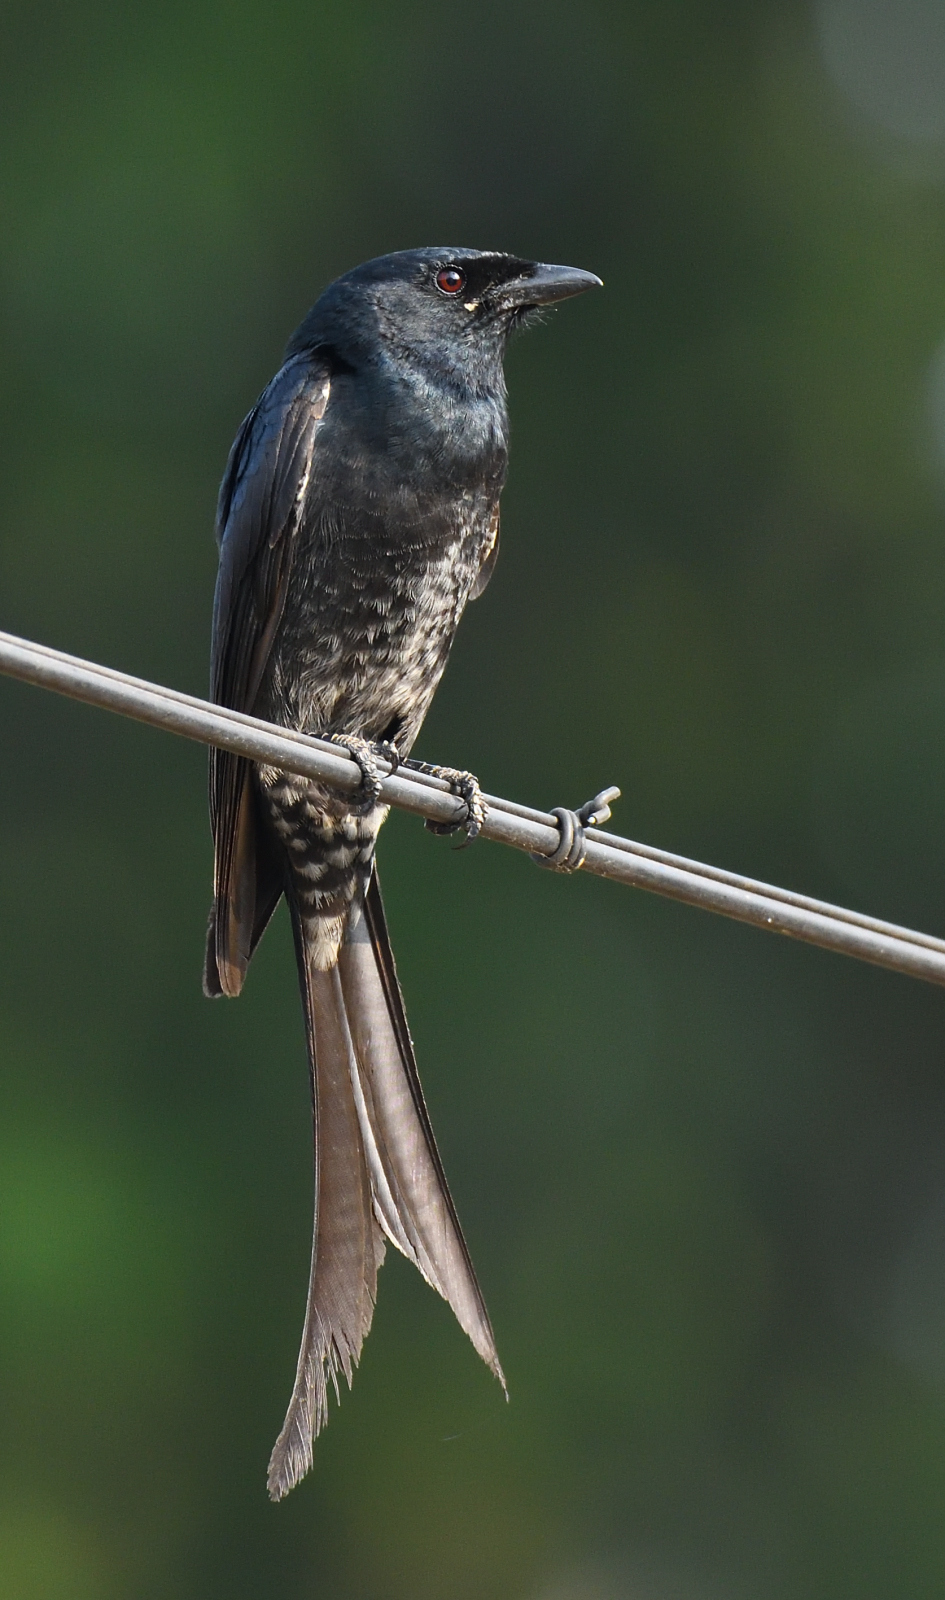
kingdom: Animalia
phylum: Chordata
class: Aves
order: Passeriformes
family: Dicruridae
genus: Dicrurus
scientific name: Dicrurus macrocercus
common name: Black drongo
